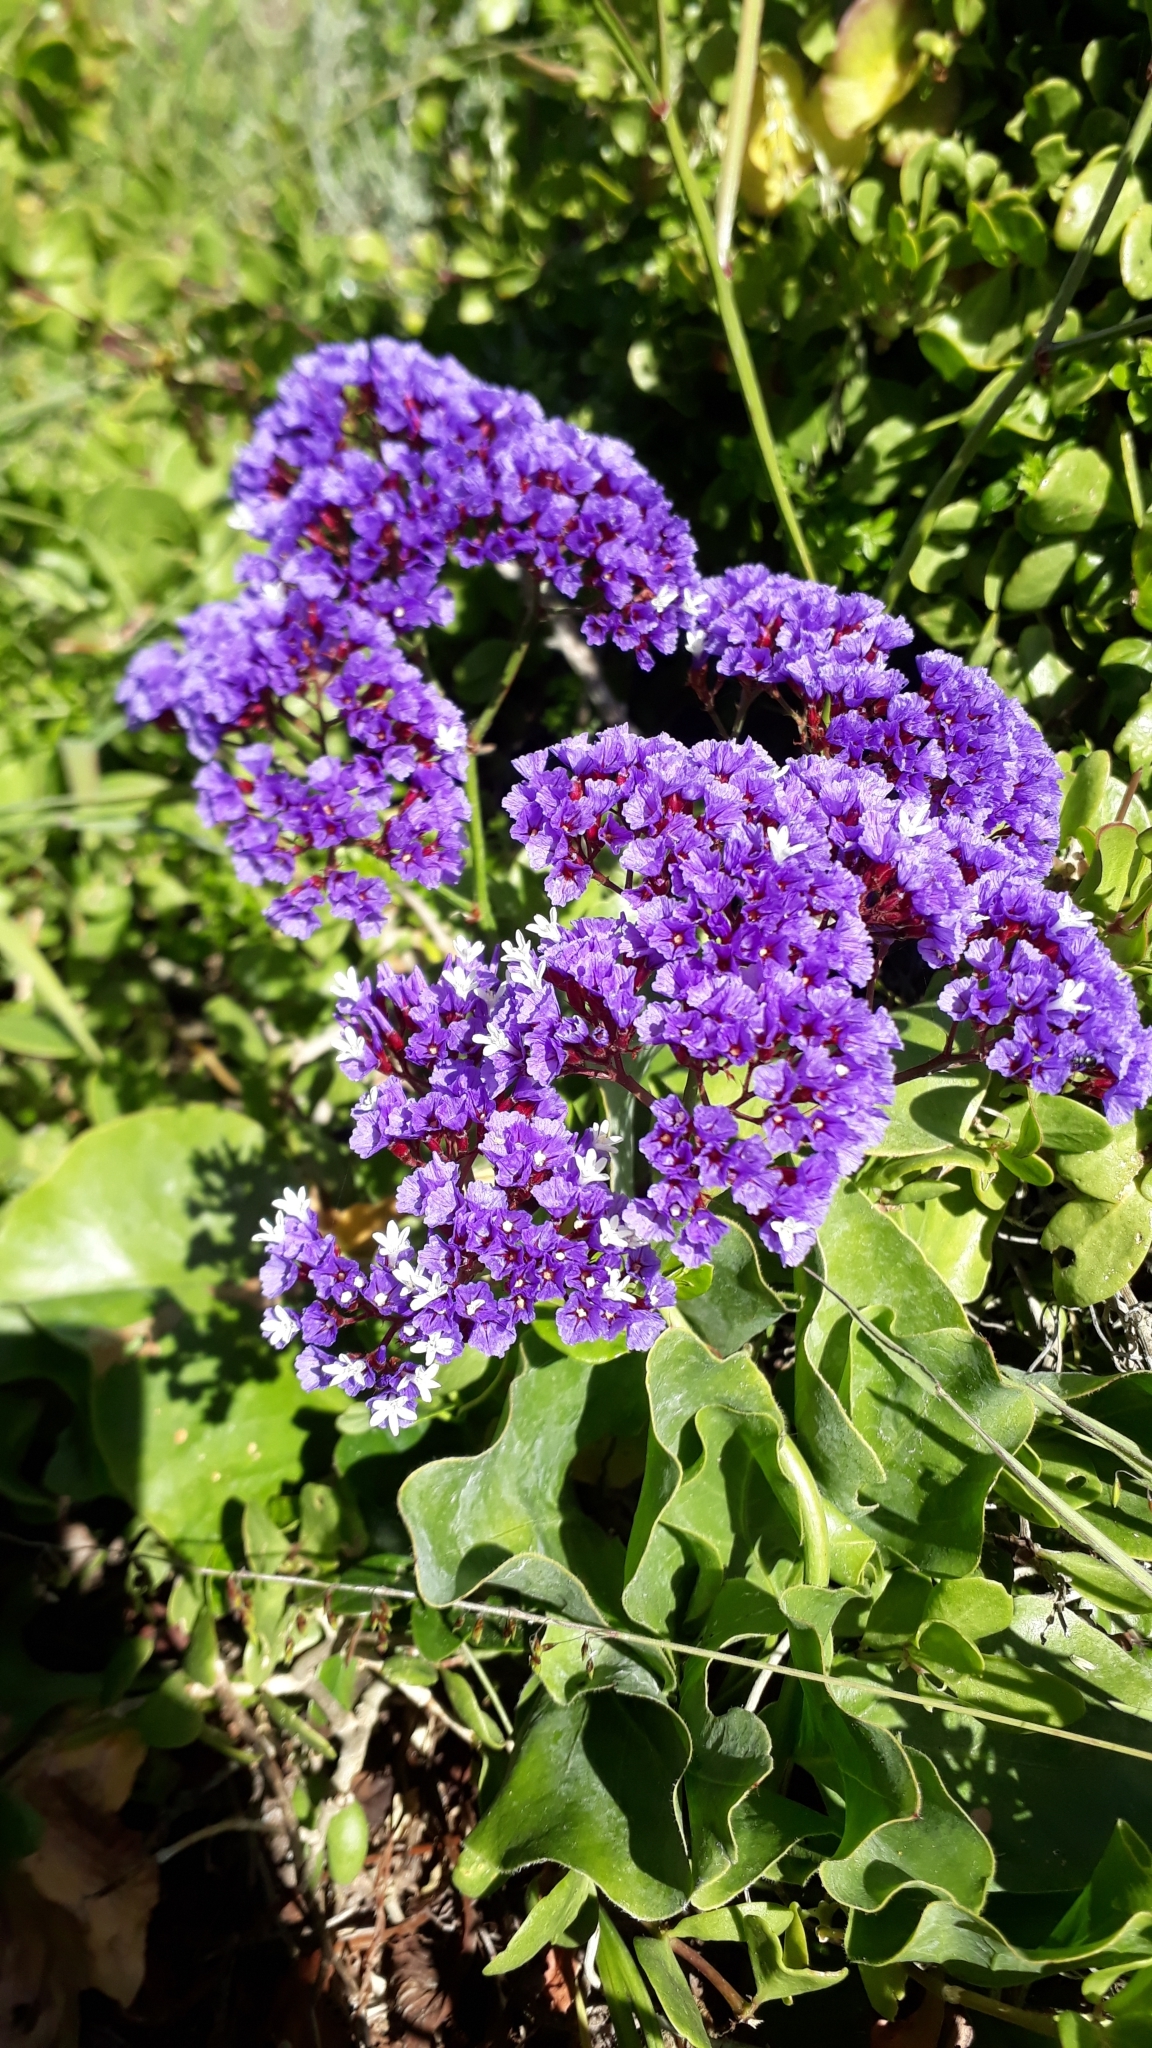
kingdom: Plantae
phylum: Tracheophyta
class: Magnoliopsida
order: Caryophyllales
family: Plumbaginaceae
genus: Limonium
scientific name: Limonium perezii
